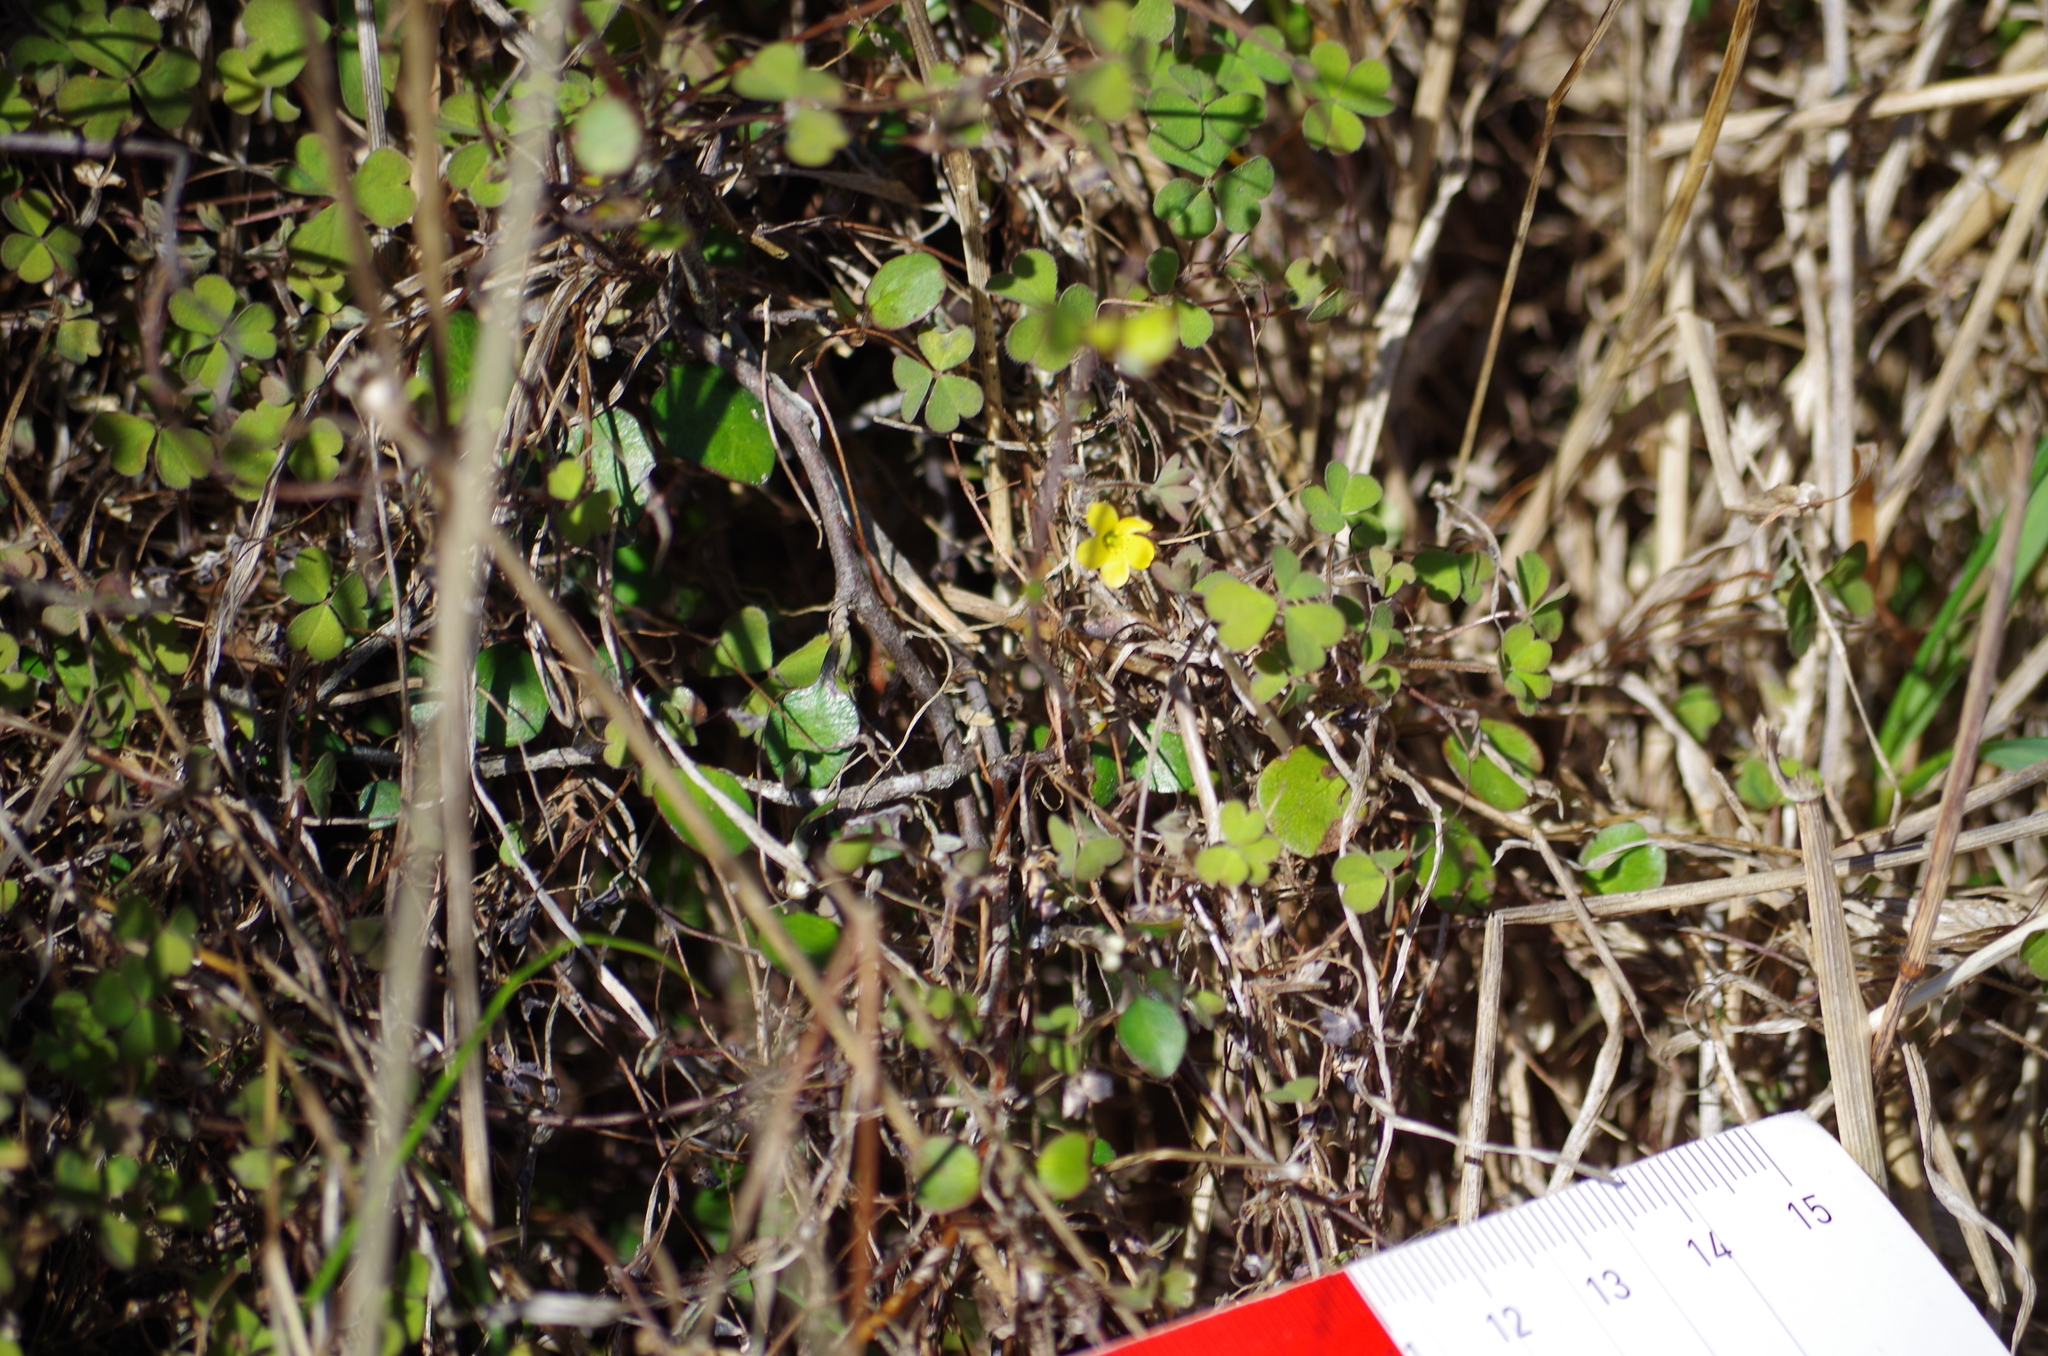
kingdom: Plantae
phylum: Tracheophyta
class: Magnoliopsida
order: Oxalidales
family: Oxalidaceae
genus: Oxalis
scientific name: Oxalis exilis
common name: Least yellow-sorrel
